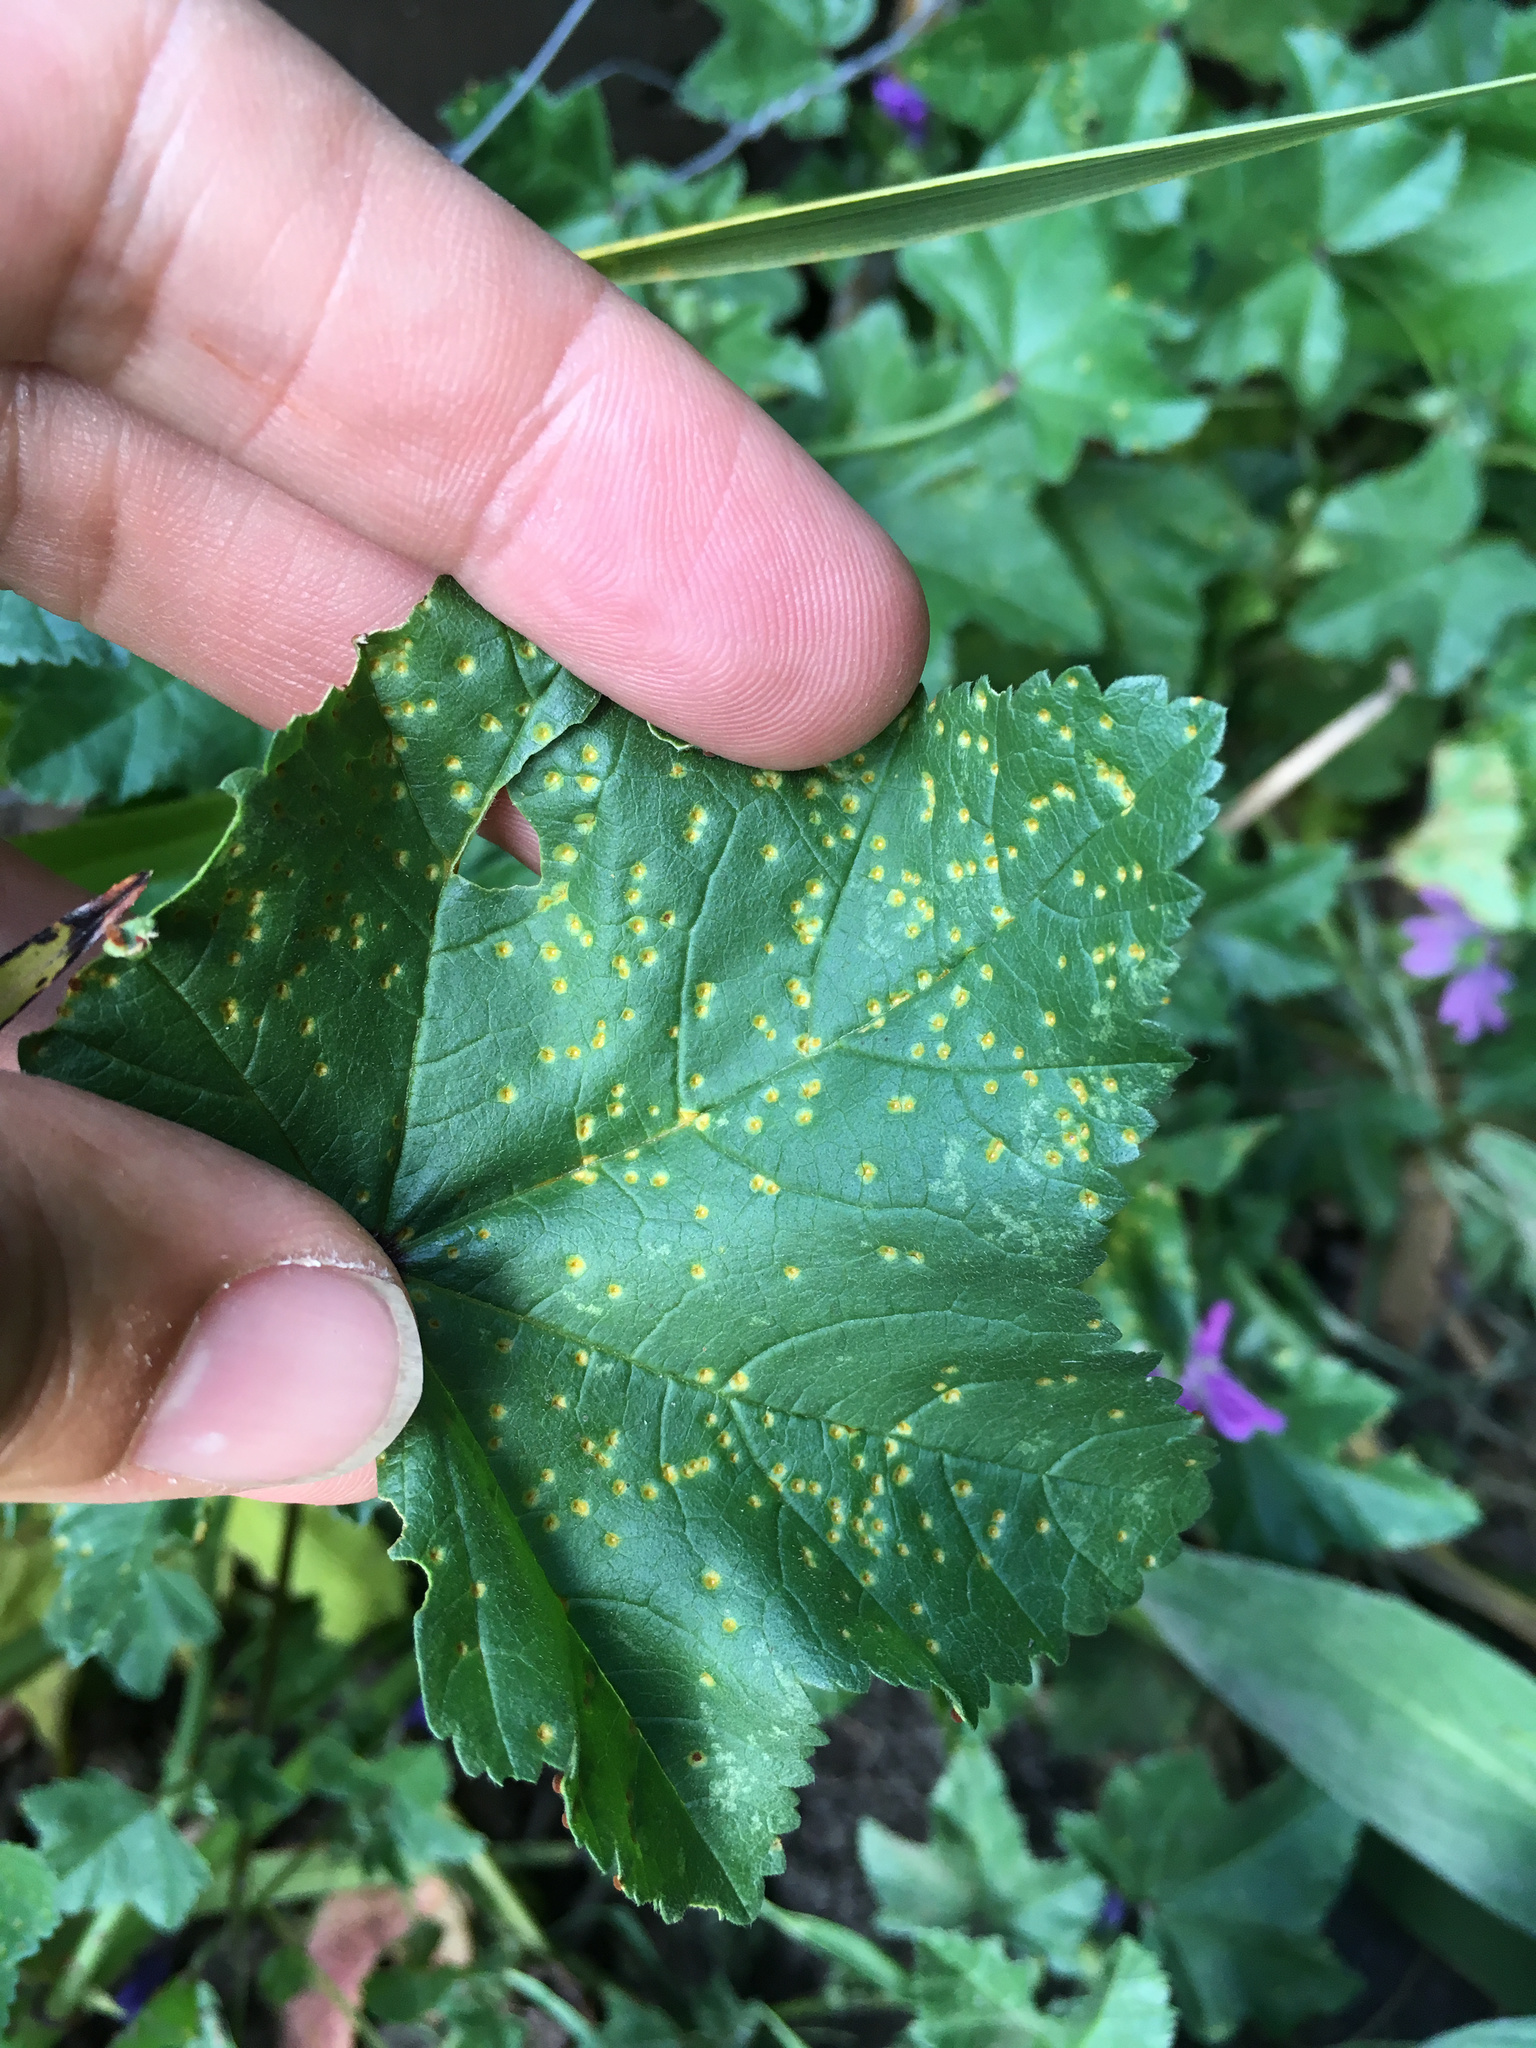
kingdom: Fungi
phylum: Basidiomycota
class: Pucciniomycetes
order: Pucciniales
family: Pucciniaceae
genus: Puccinia
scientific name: Puccinia malvacearum
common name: Hollyhock rust
